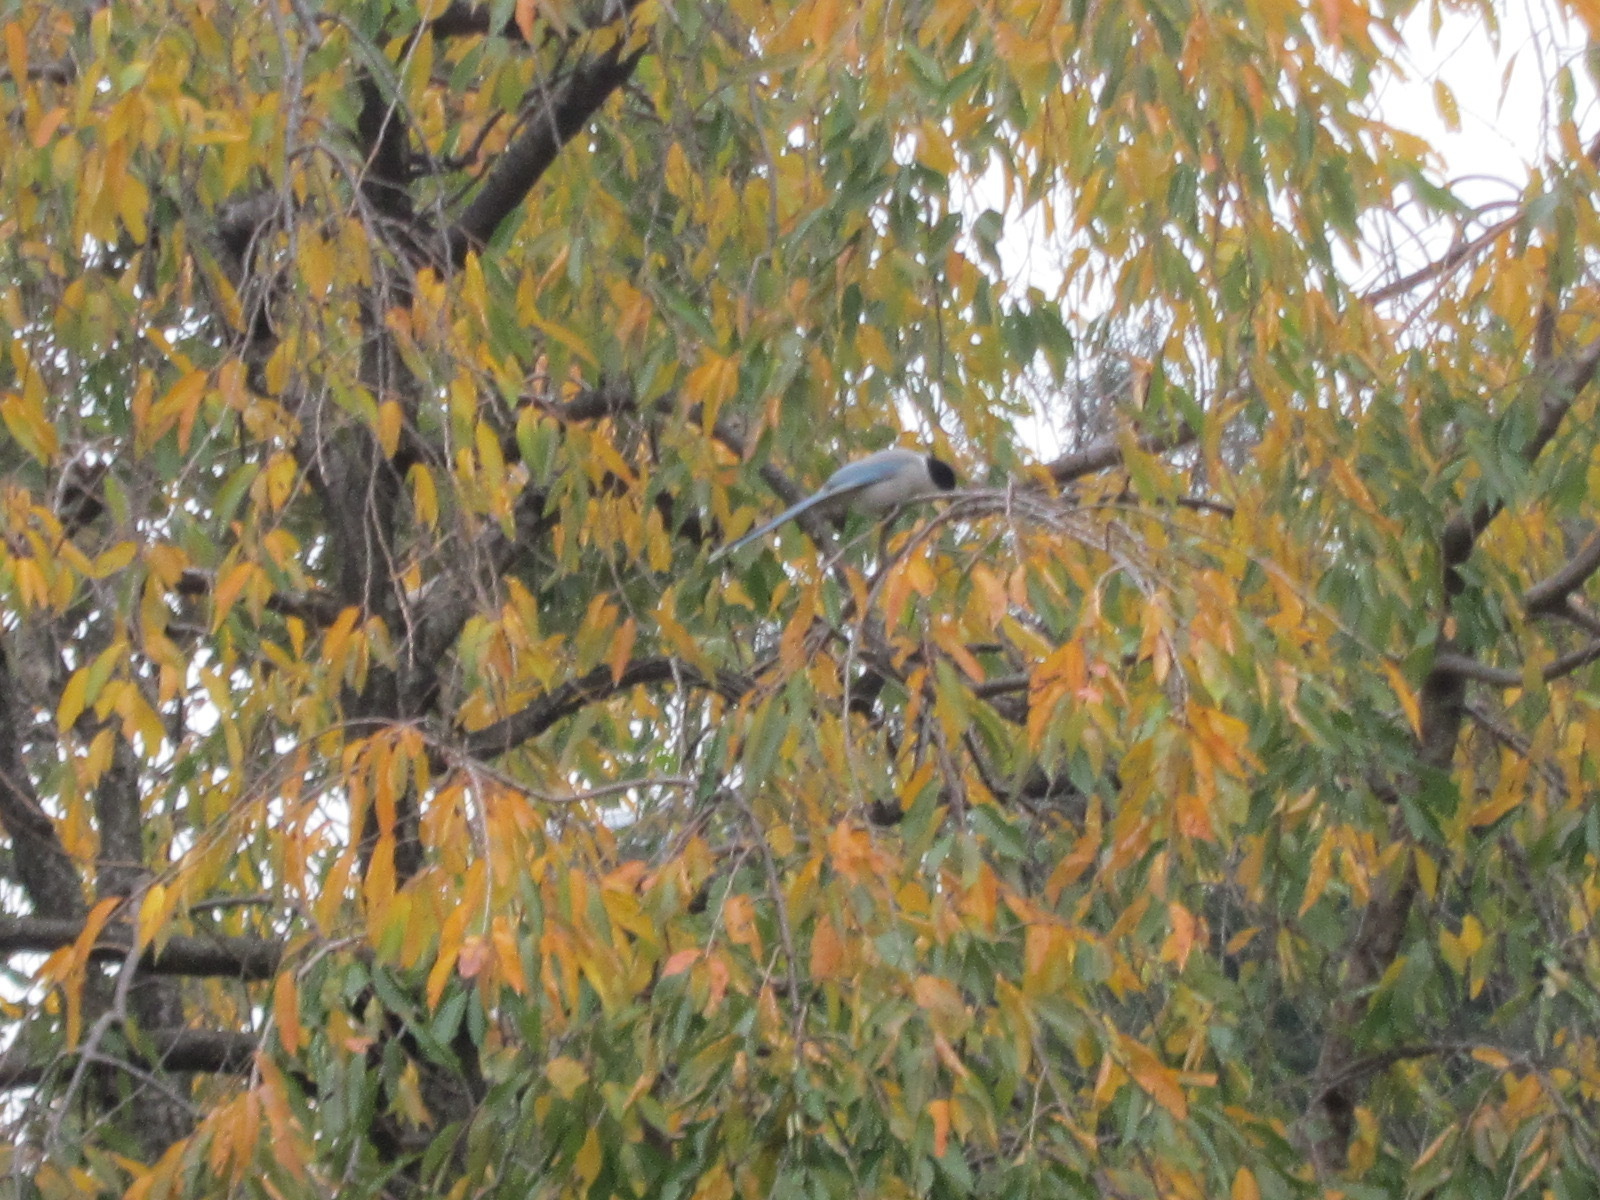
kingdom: Animalia
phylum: Chordata
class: Aves
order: Passeriformes
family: Corvidae
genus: Cyanopica
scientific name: Cyanopica cyanus
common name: Azure-winged magpie
